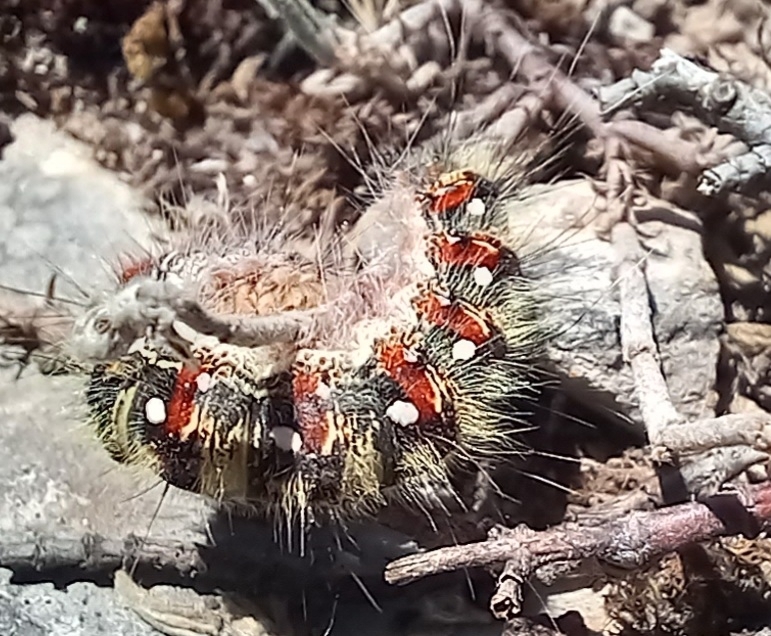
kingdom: Animalia
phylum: Arthropoda
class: Insecta
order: Lepidoptera
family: Lasiocampidae
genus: Psilogaster
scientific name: Psilogaster loti
